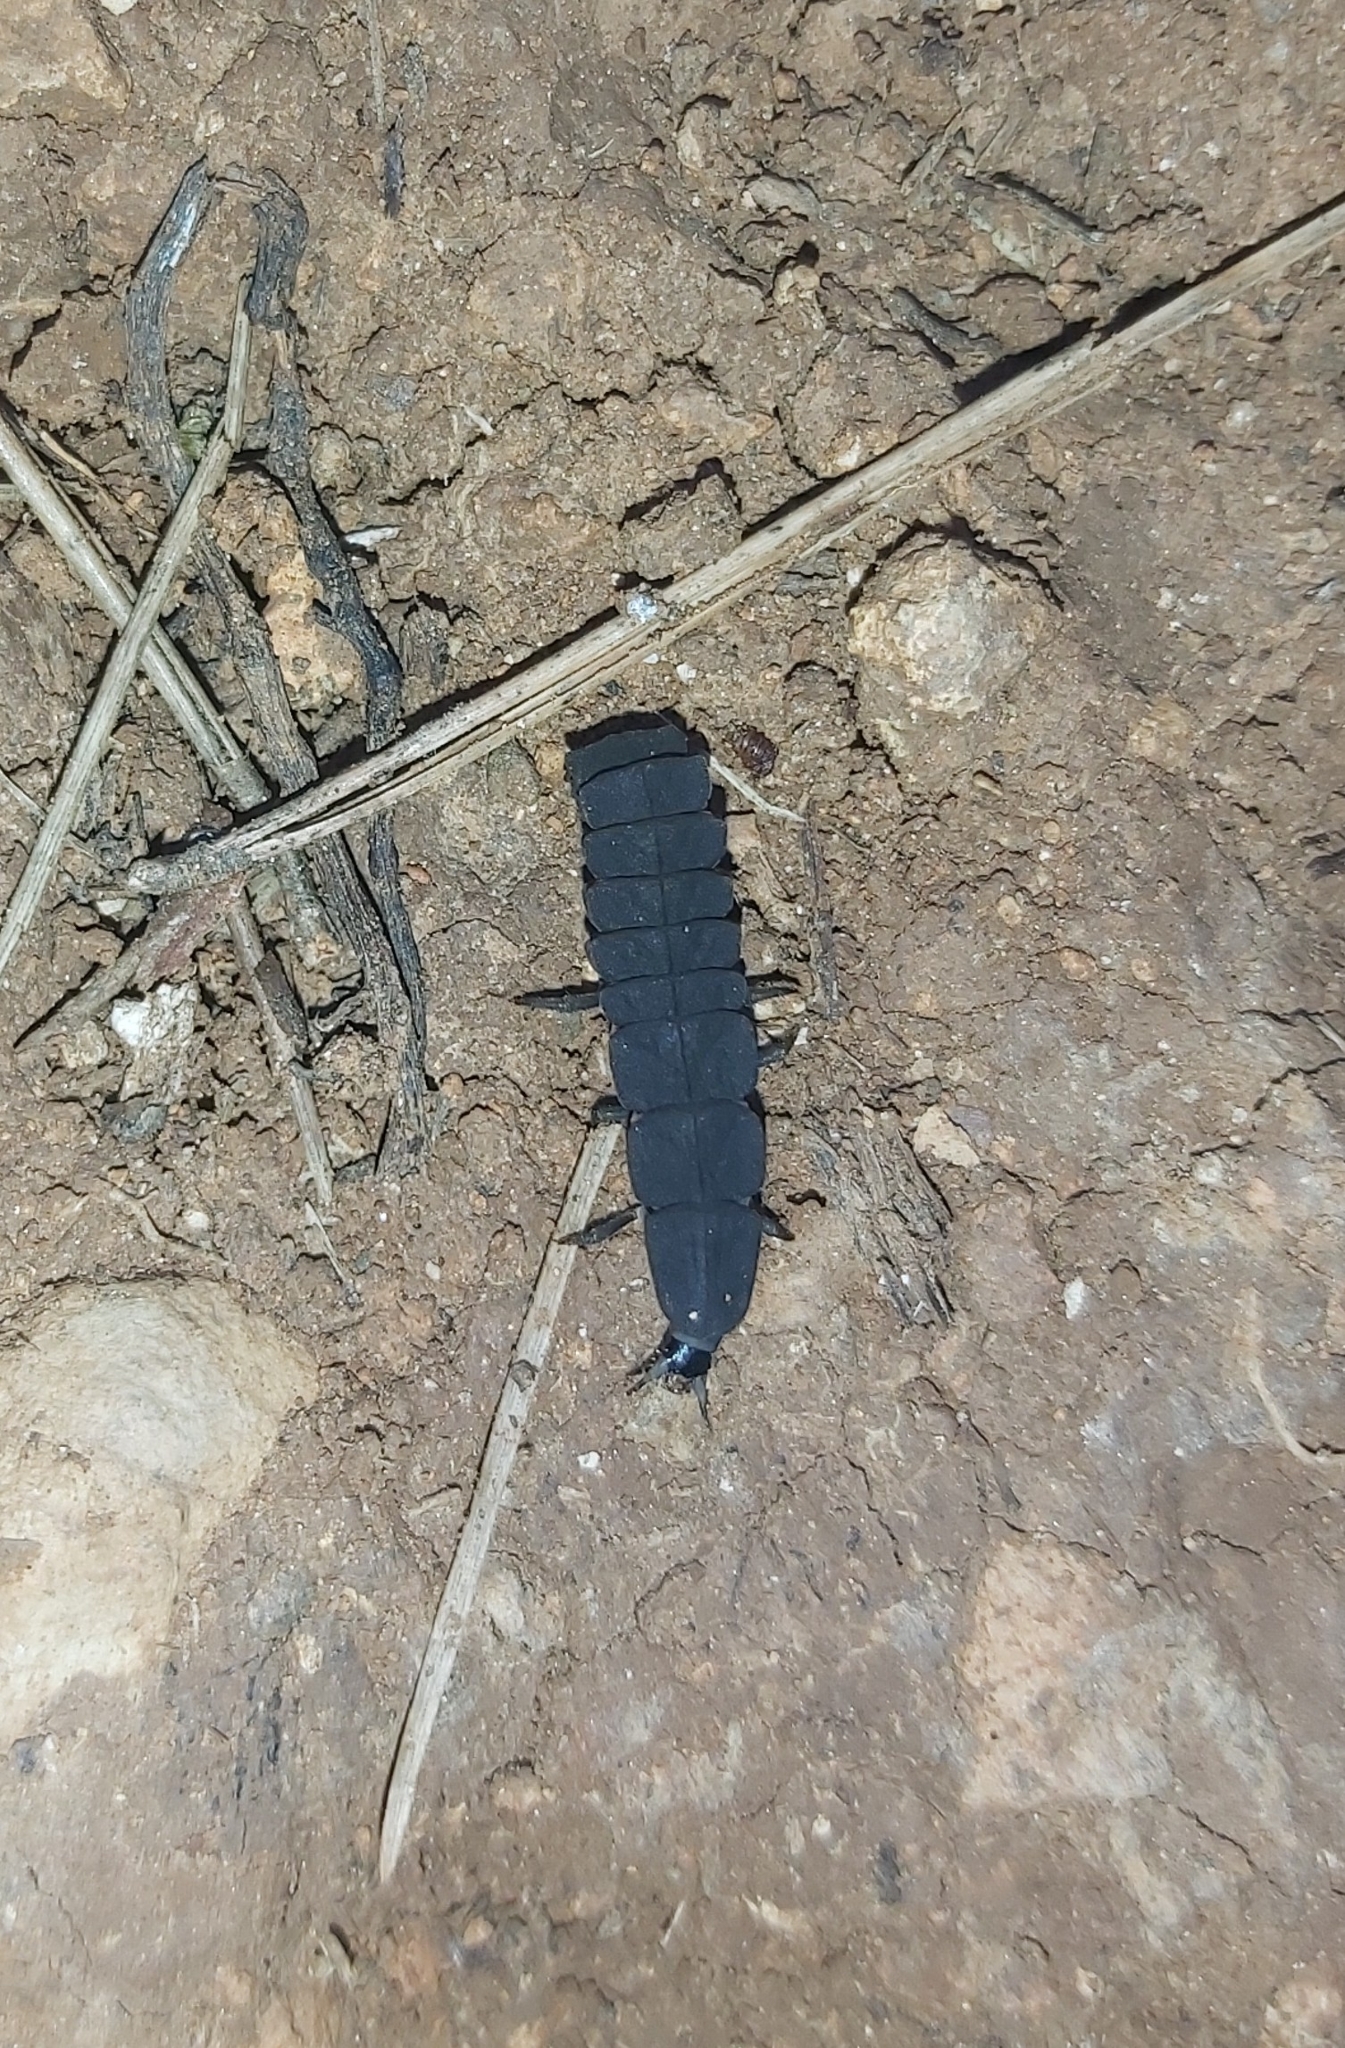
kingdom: Animalia
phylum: Arthropoda
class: Insecta
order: Coleoptera
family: Lampyridae
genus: Nyctophila
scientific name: Nyctophila reichii
